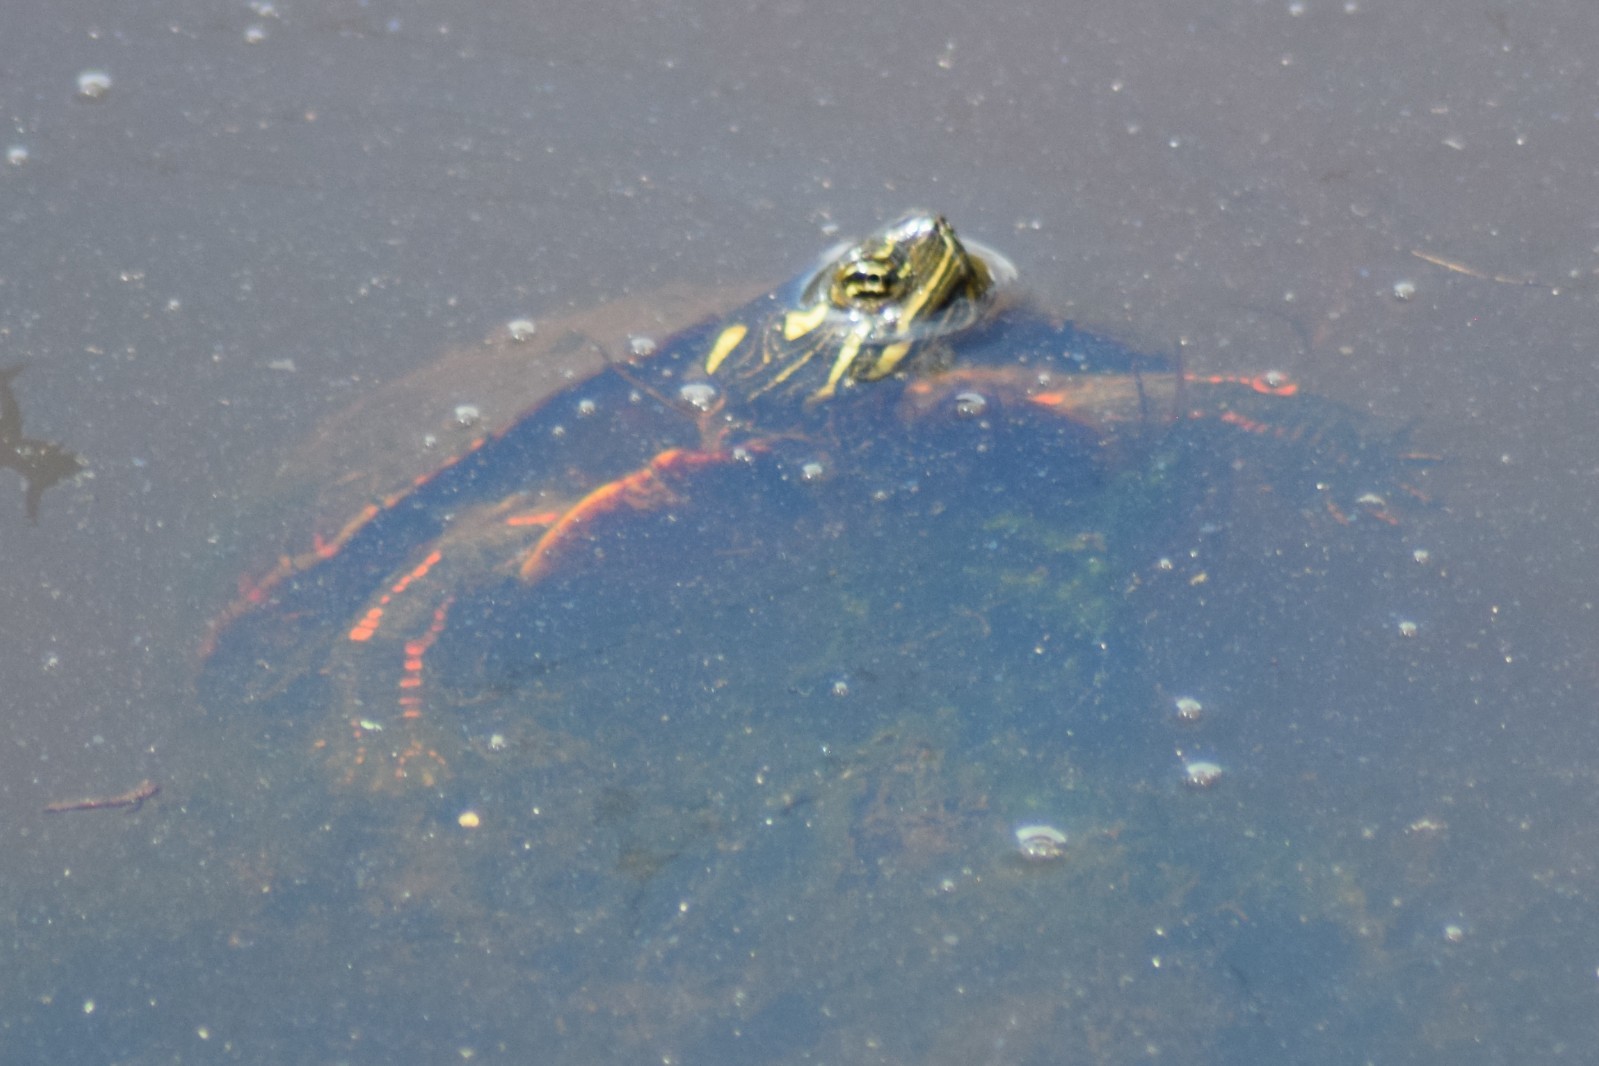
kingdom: Animalia
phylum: Chordata
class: Testudines
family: Emydidae
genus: Chrysemys
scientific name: Chrysemys picta
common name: Painted turtle
